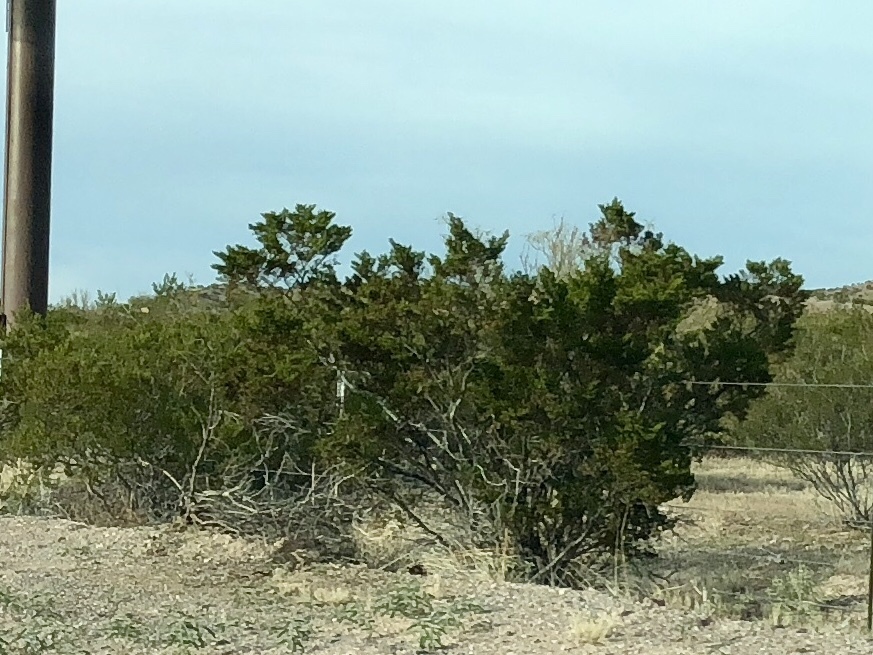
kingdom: Plantae
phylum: Tracheophyta
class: Magnoliopsida
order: Zygophyllales
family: Zygophyllaceae
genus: Larrea
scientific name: Larrea tridentata
